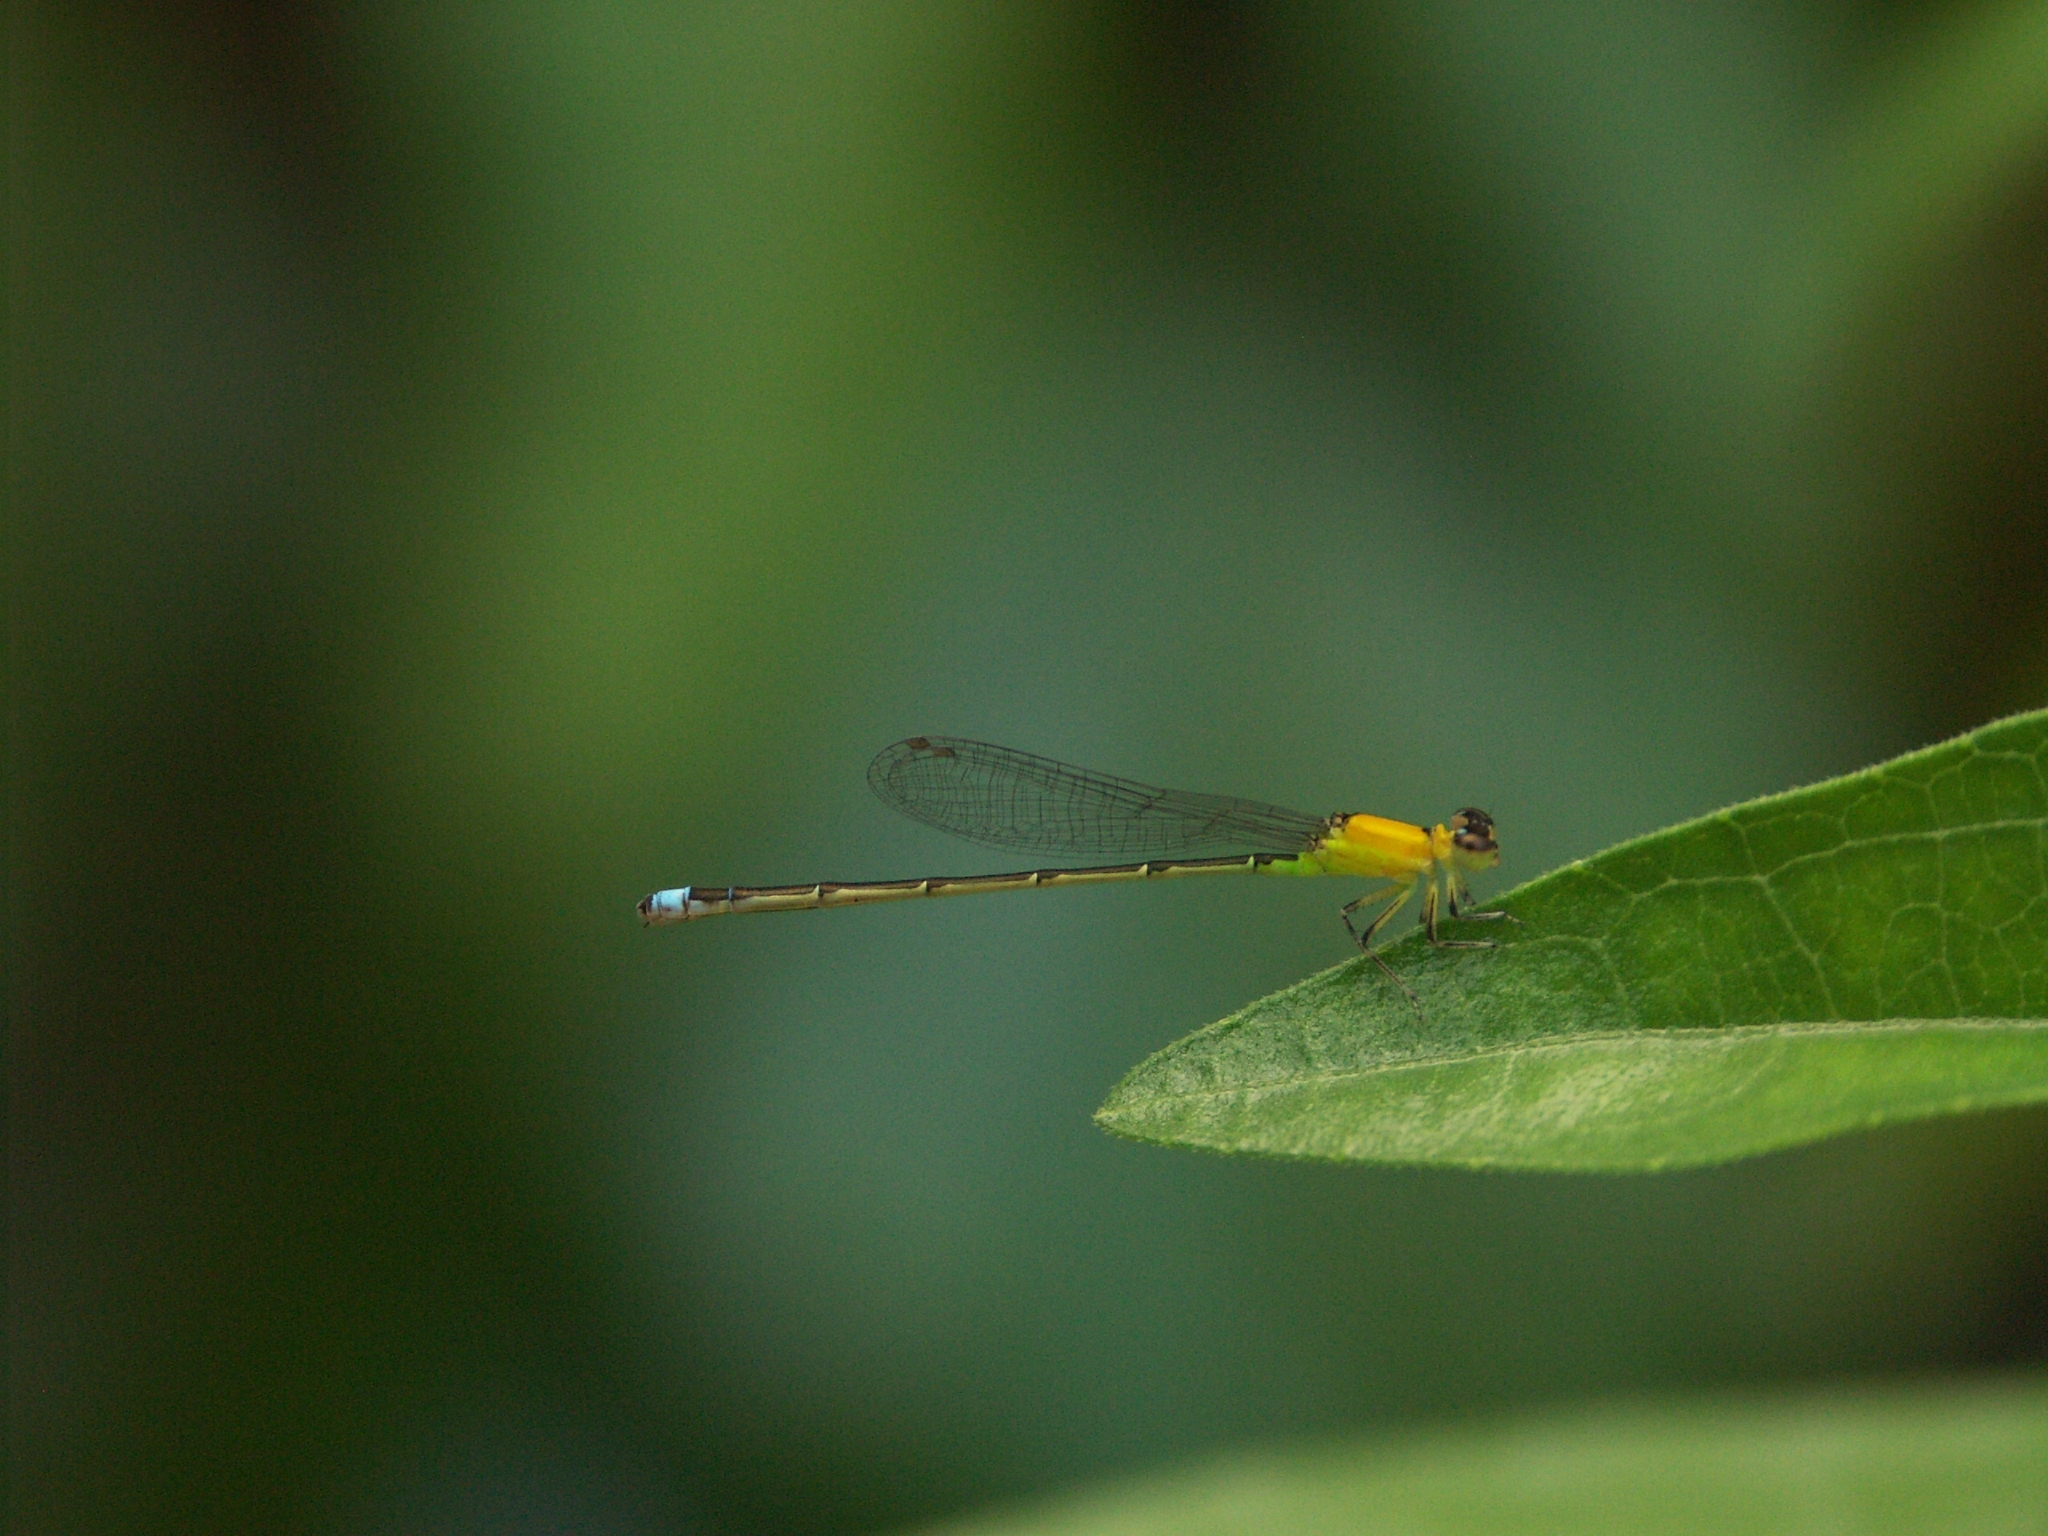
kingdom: Animalia
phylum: Arthropoda
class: Insecta
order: Odonata
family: Coenagrionidae
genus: Ischnura
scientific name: Ischnura capreolus
